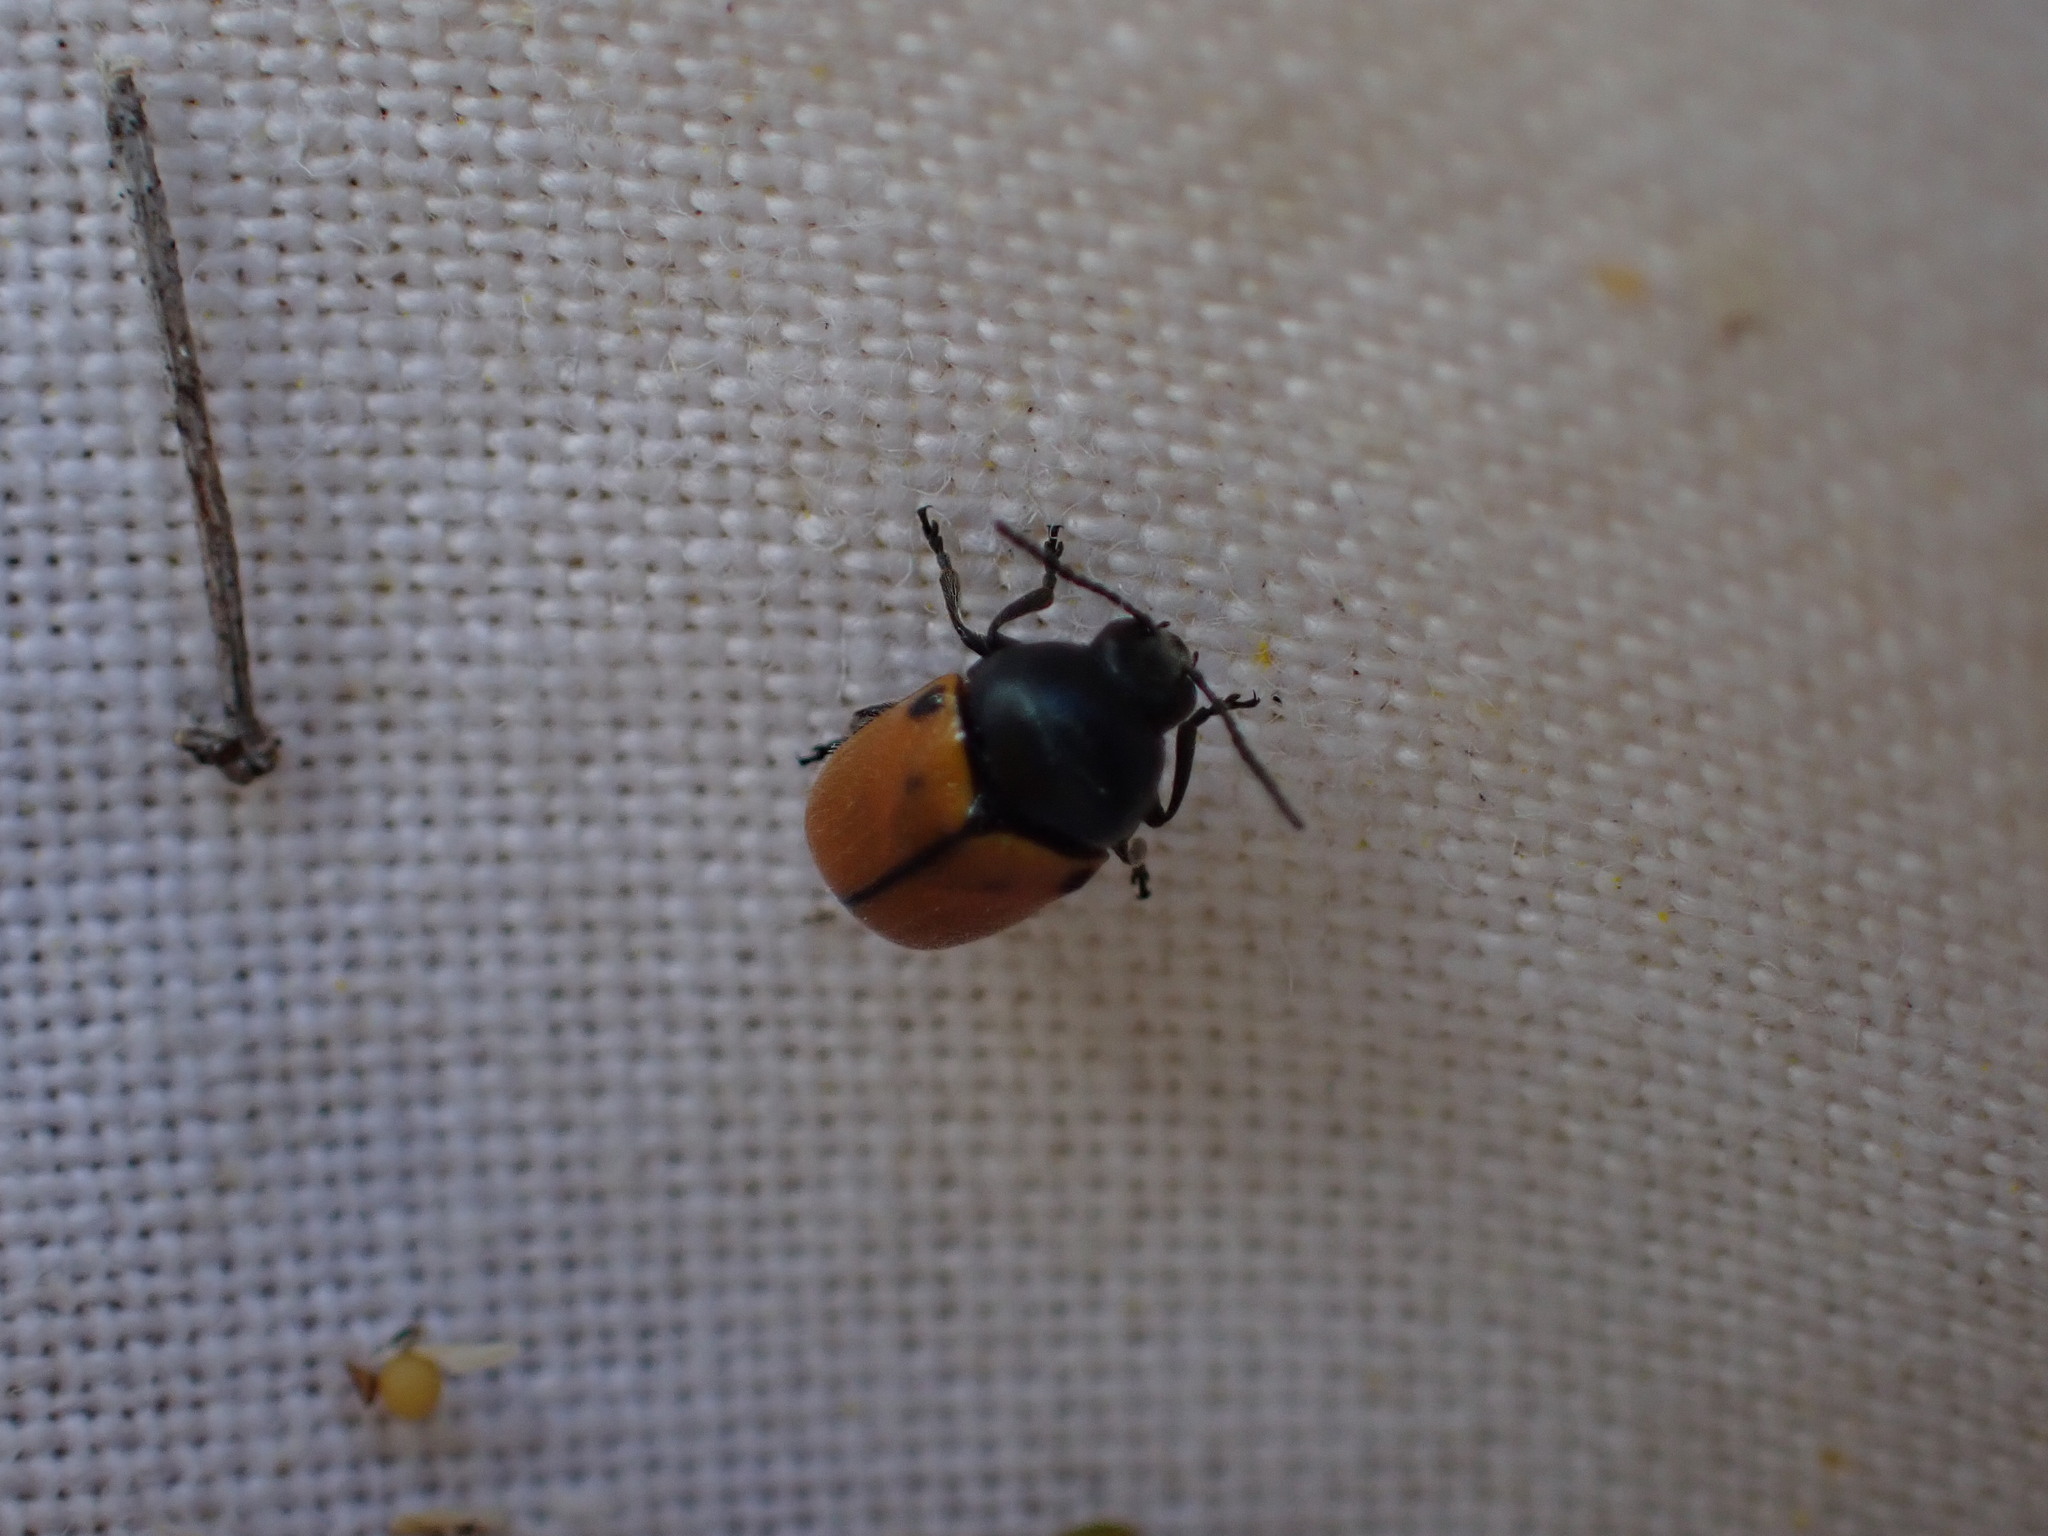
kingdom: Animalia
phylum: Arthropoda
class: Insecta
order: Coleoptera
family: Chrysomelidae
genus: Cryptocephalus
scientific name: Cryptocephalus rugicollis
